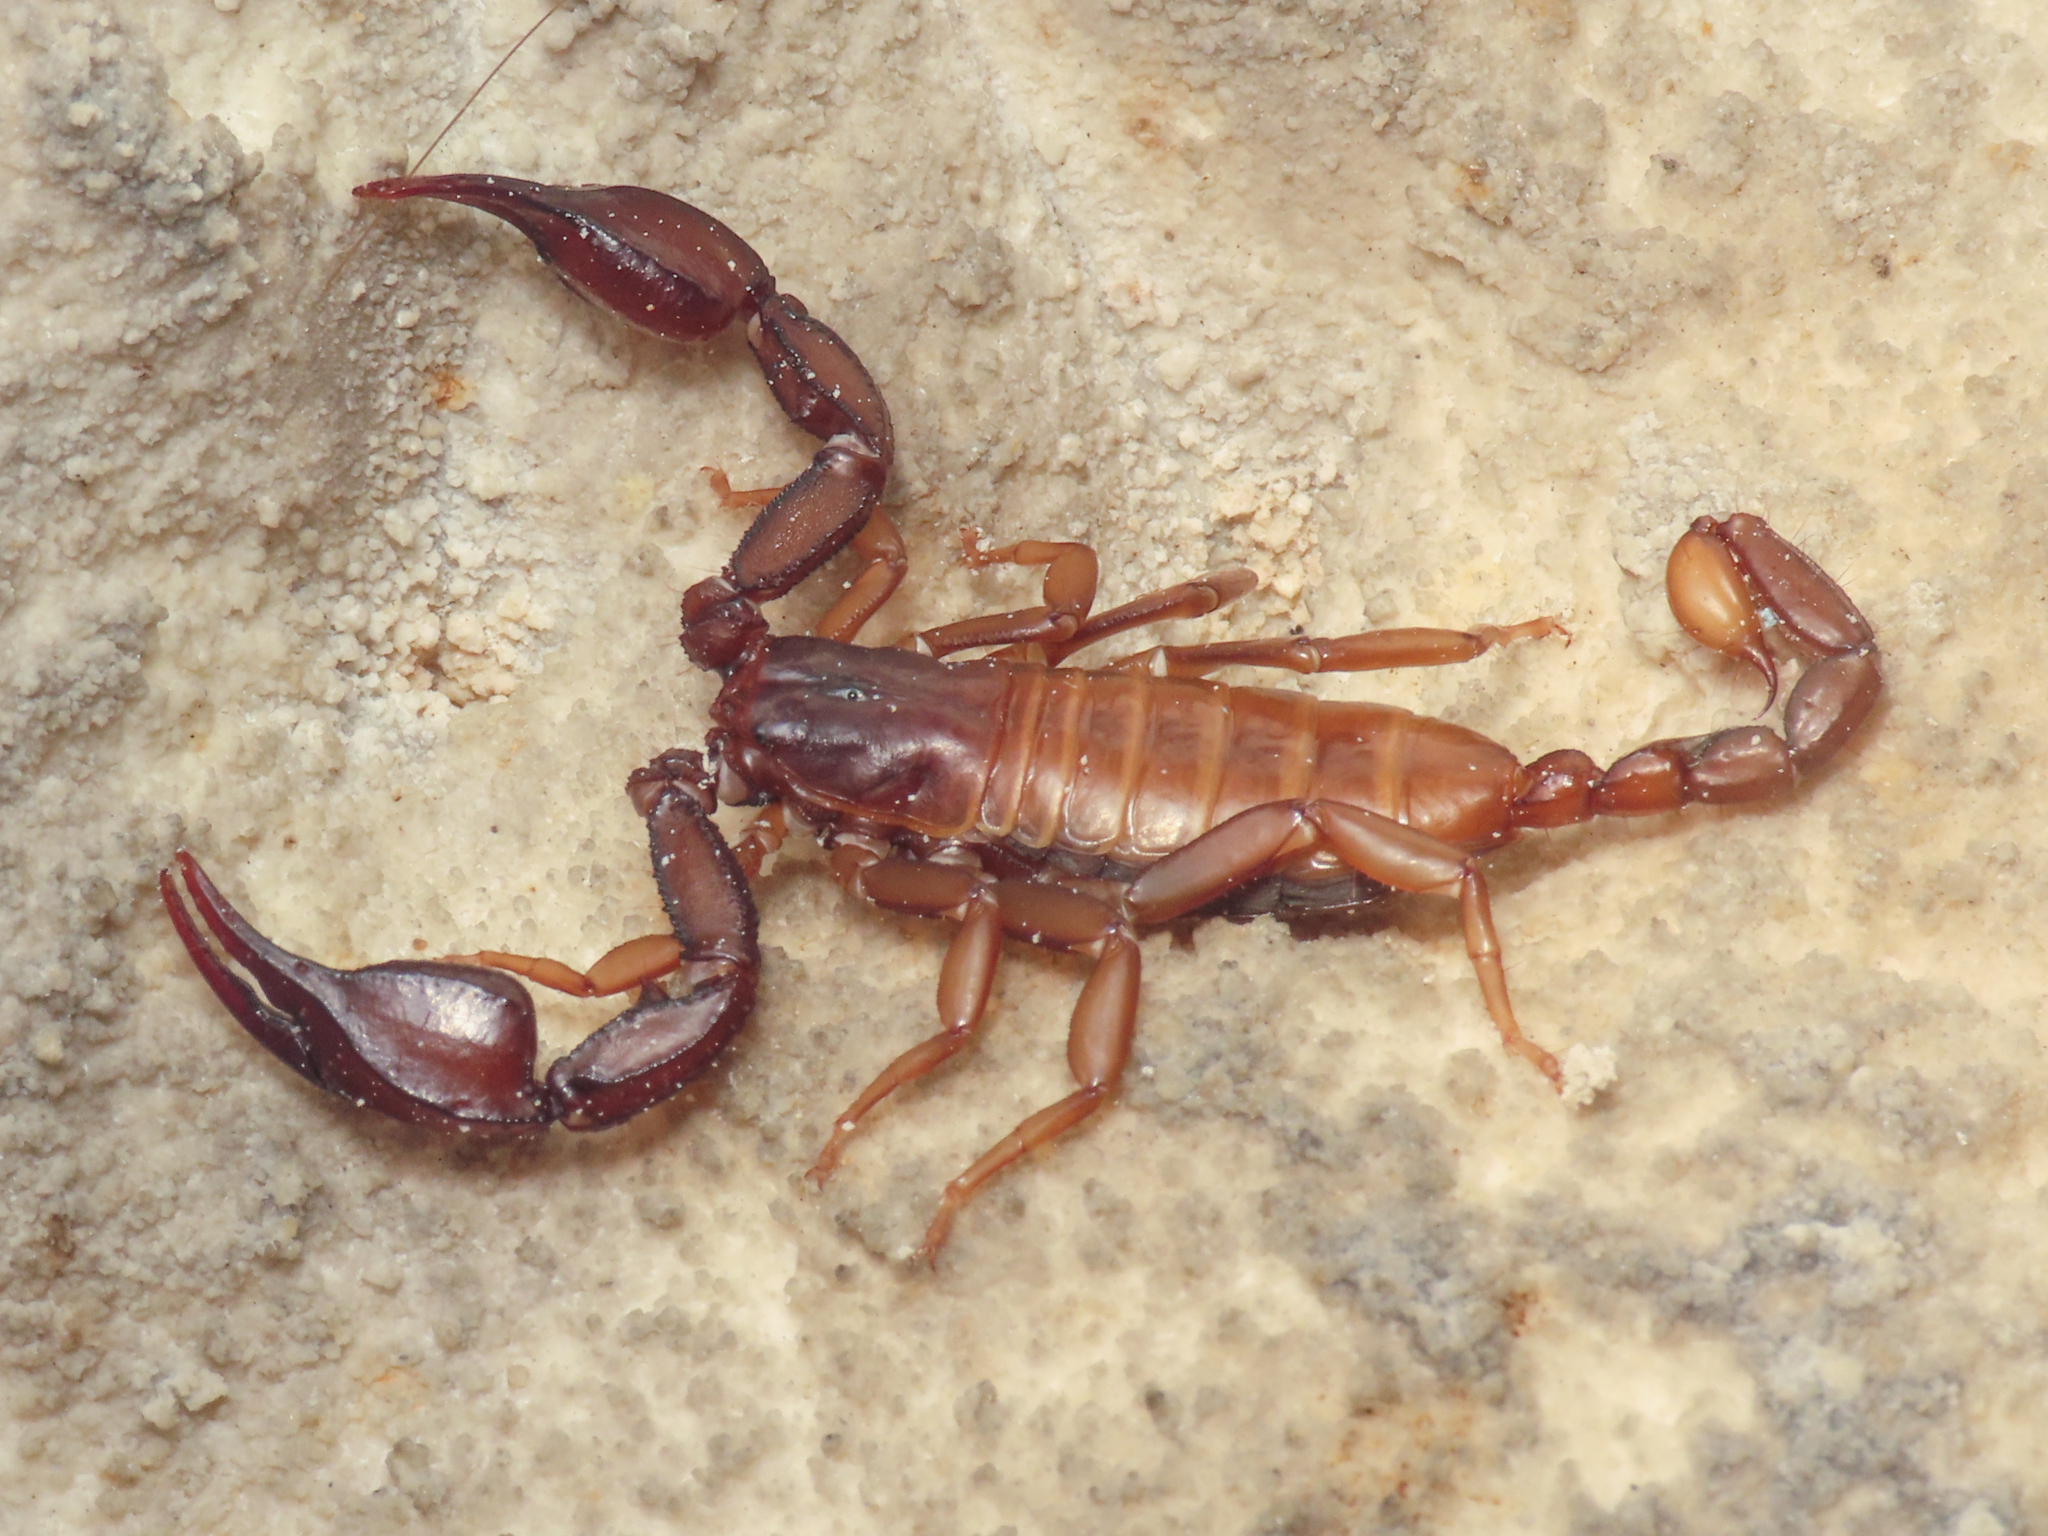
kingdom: Animalia
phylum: Arthropoda
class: Arachnida
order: Scorpiones
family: Euscorpiidae
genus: Euscorpius
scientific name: Euscorpius aquilejensis
